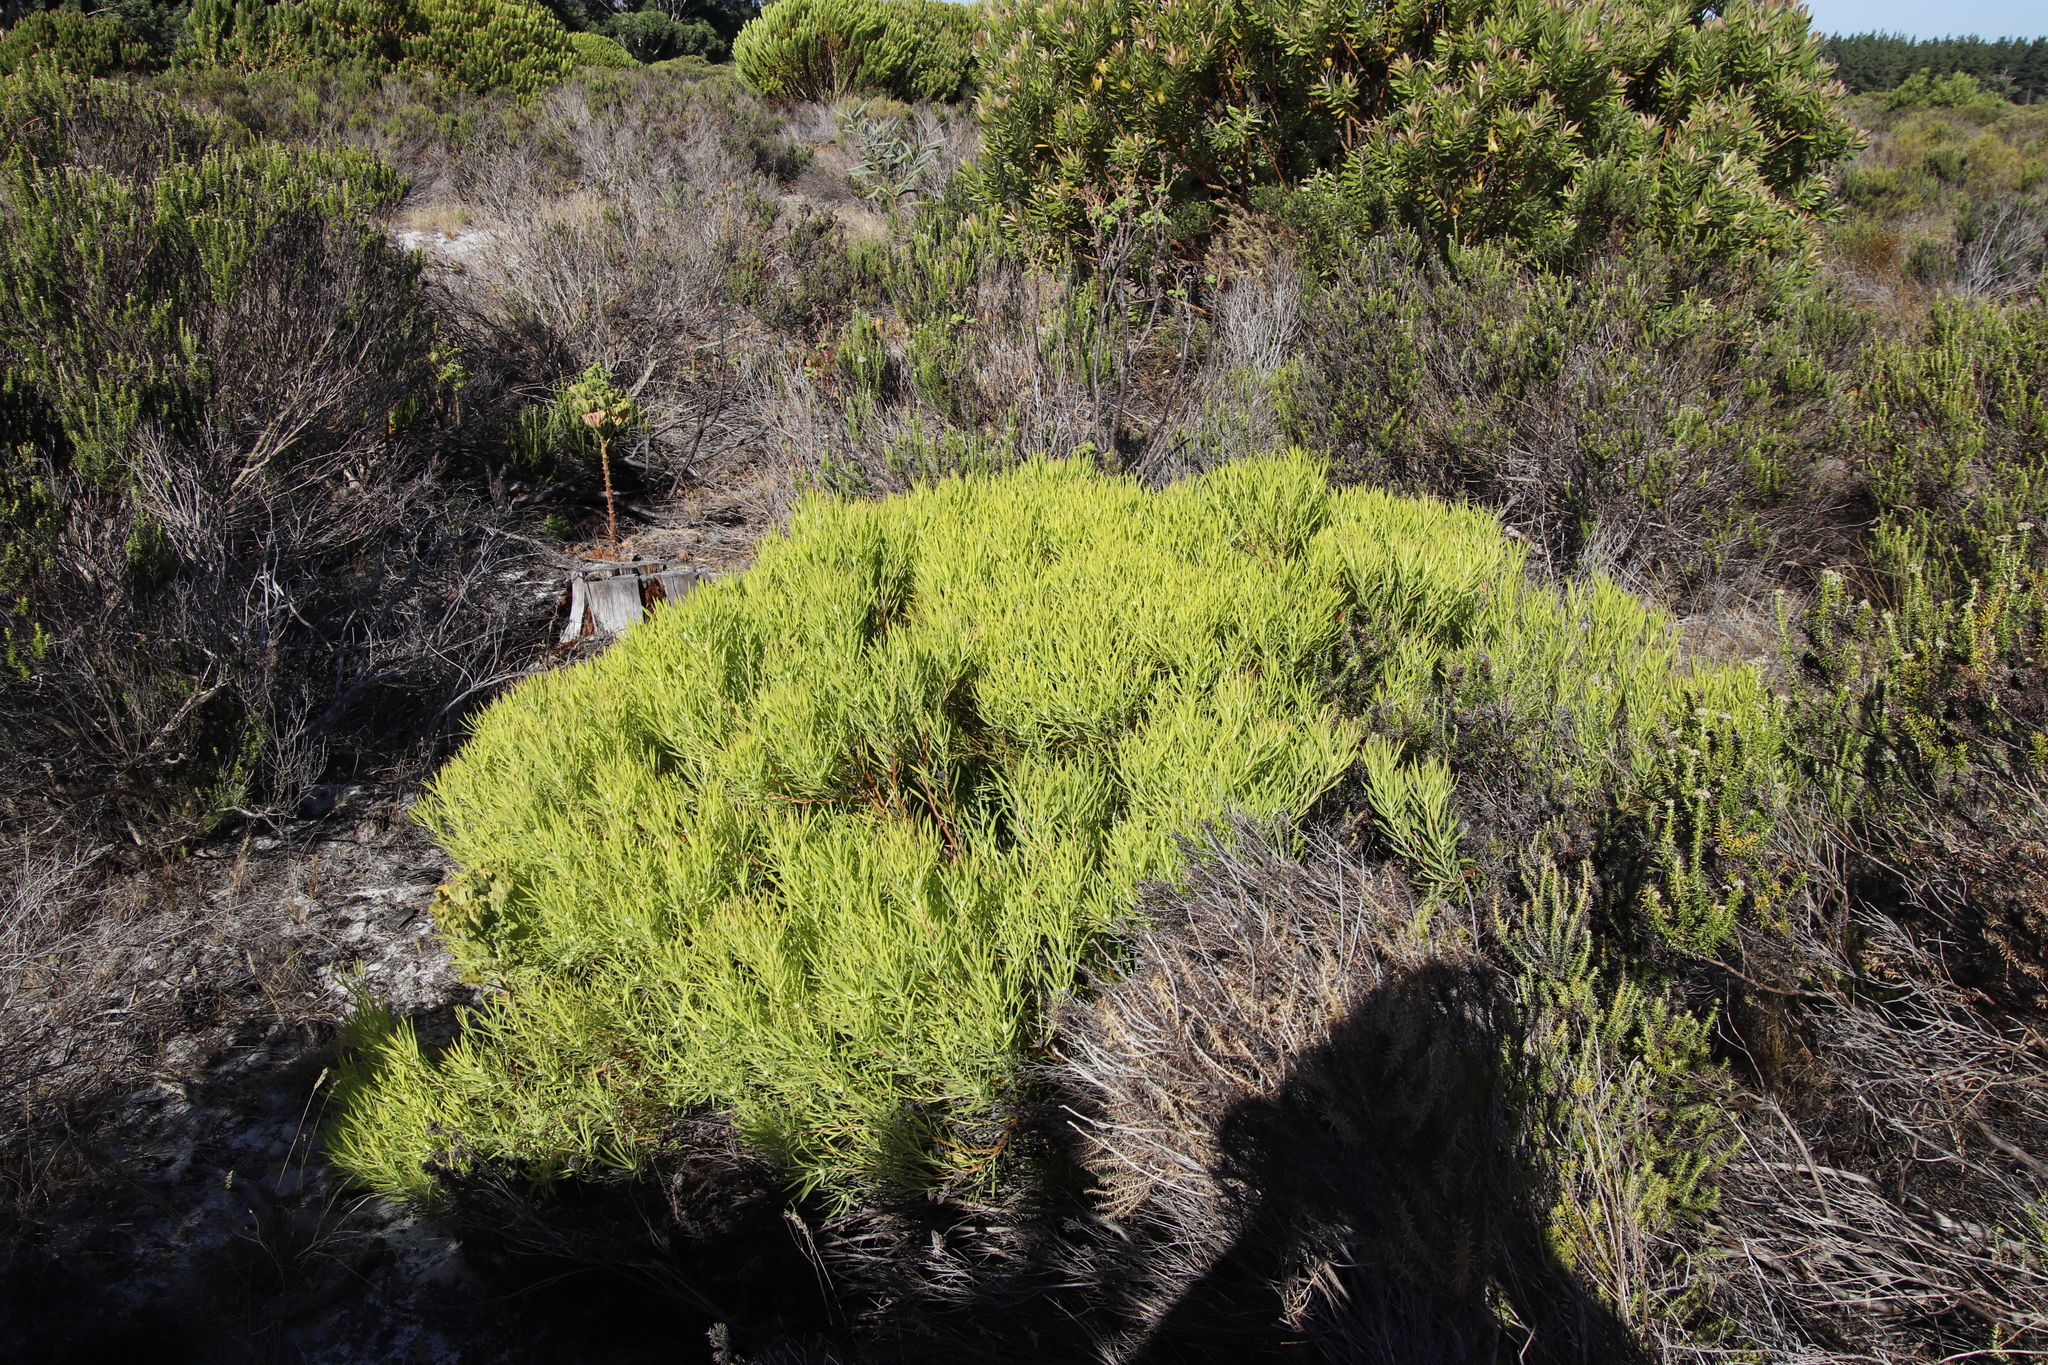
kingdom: Plantae
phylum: Tracheophyta
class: Magnoliopsida
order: Proteales
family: Proteaceae
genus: Leucadendron
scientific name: Leucadendron salignum
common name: Common sunshine conebush
